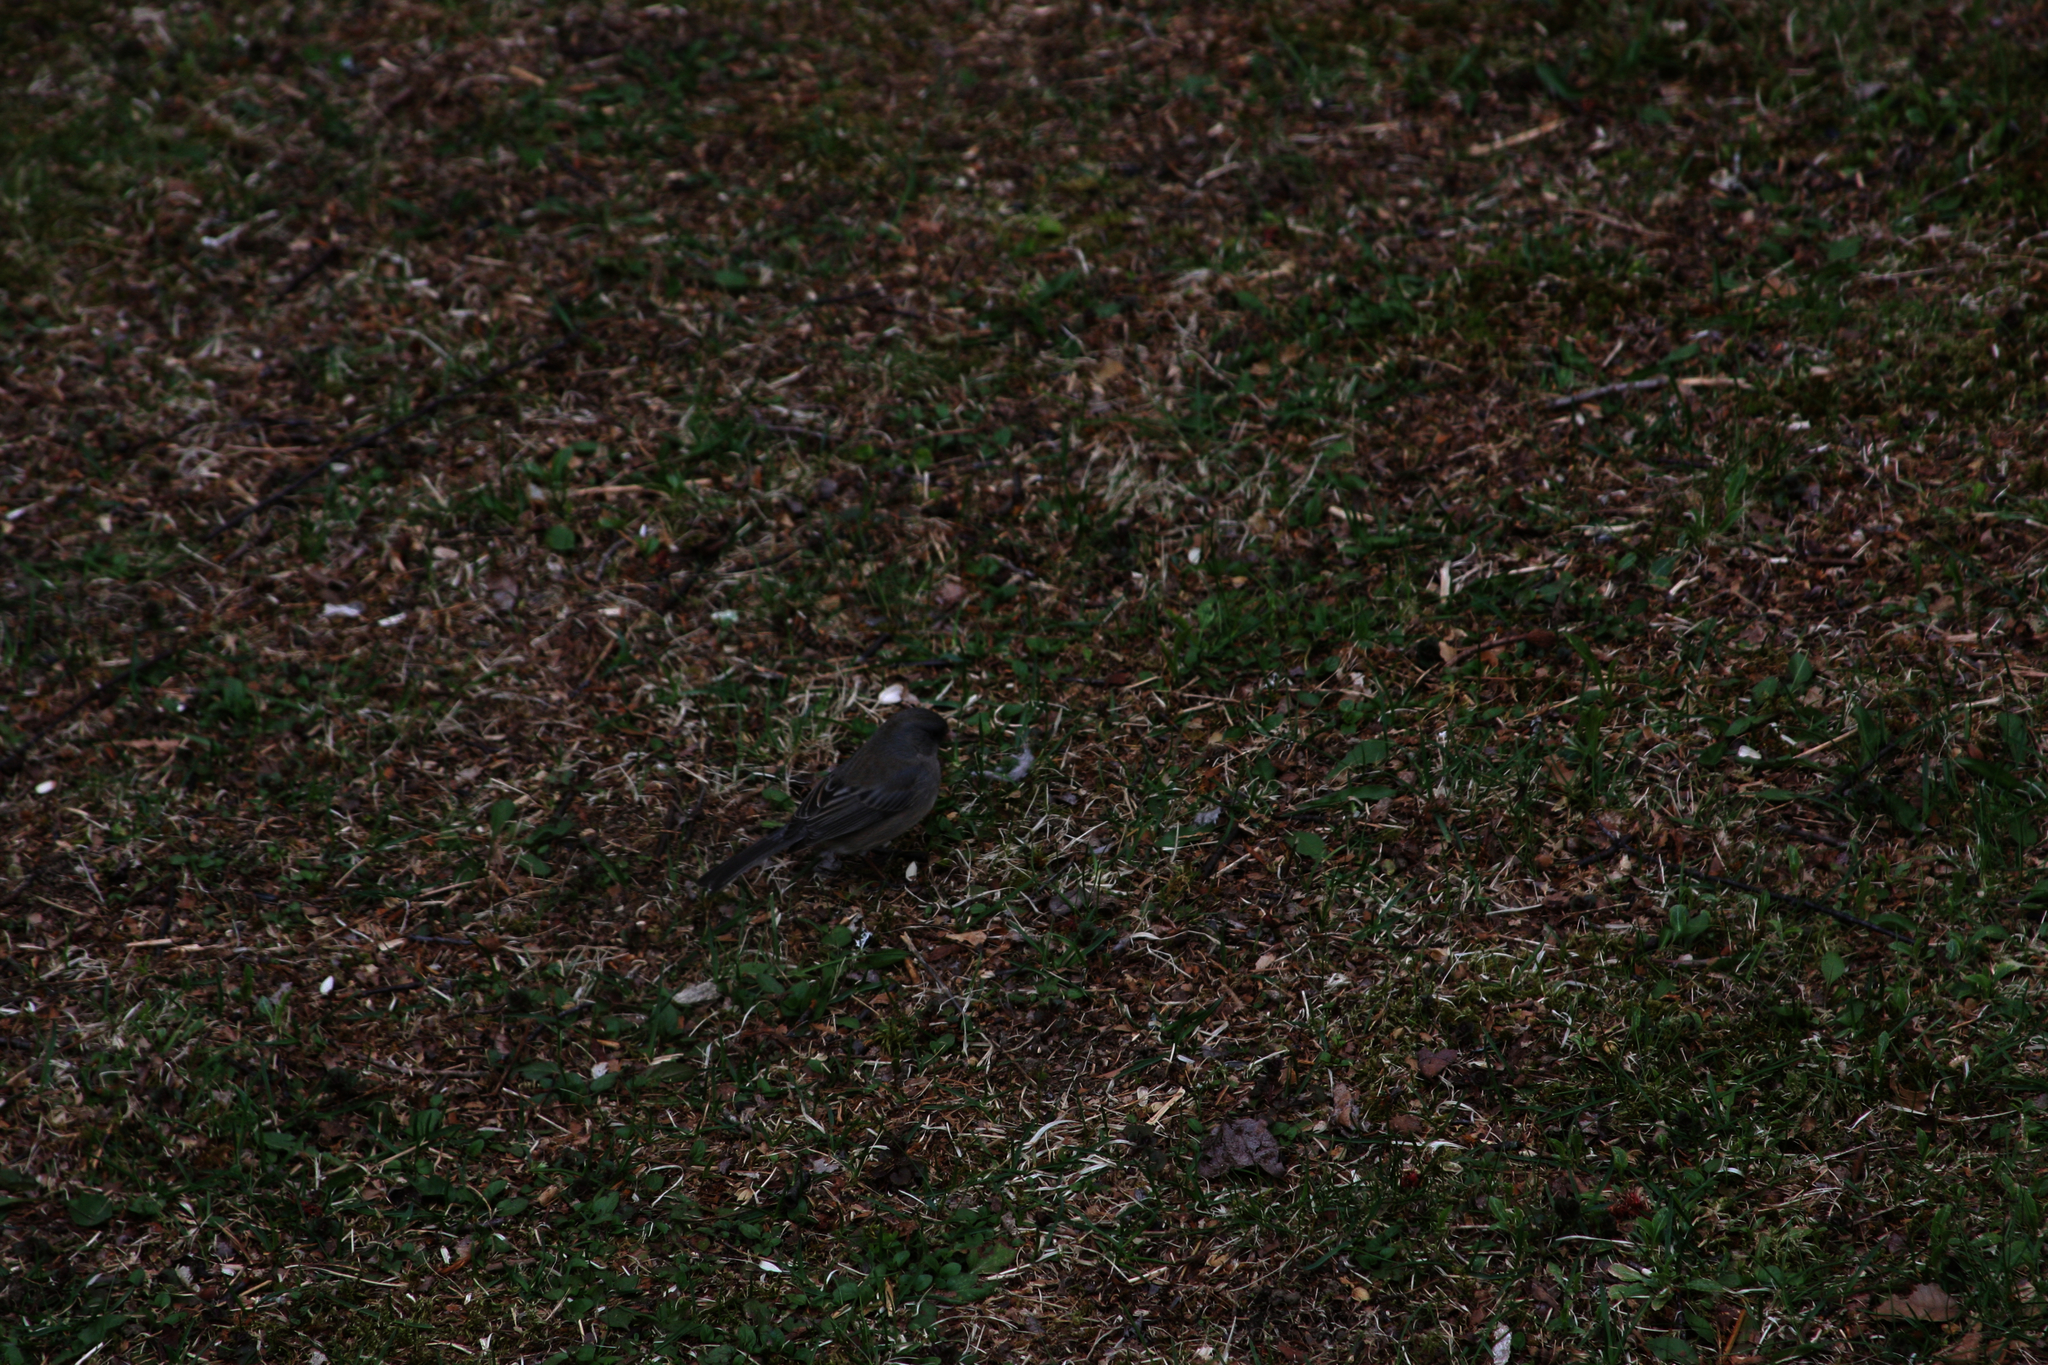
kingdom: Animalia
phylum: Chordata
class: Aves
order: Passeriformes
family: Passerellidae
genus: Junco
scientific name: Junco hyemalis
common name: Dark-eyed junco
